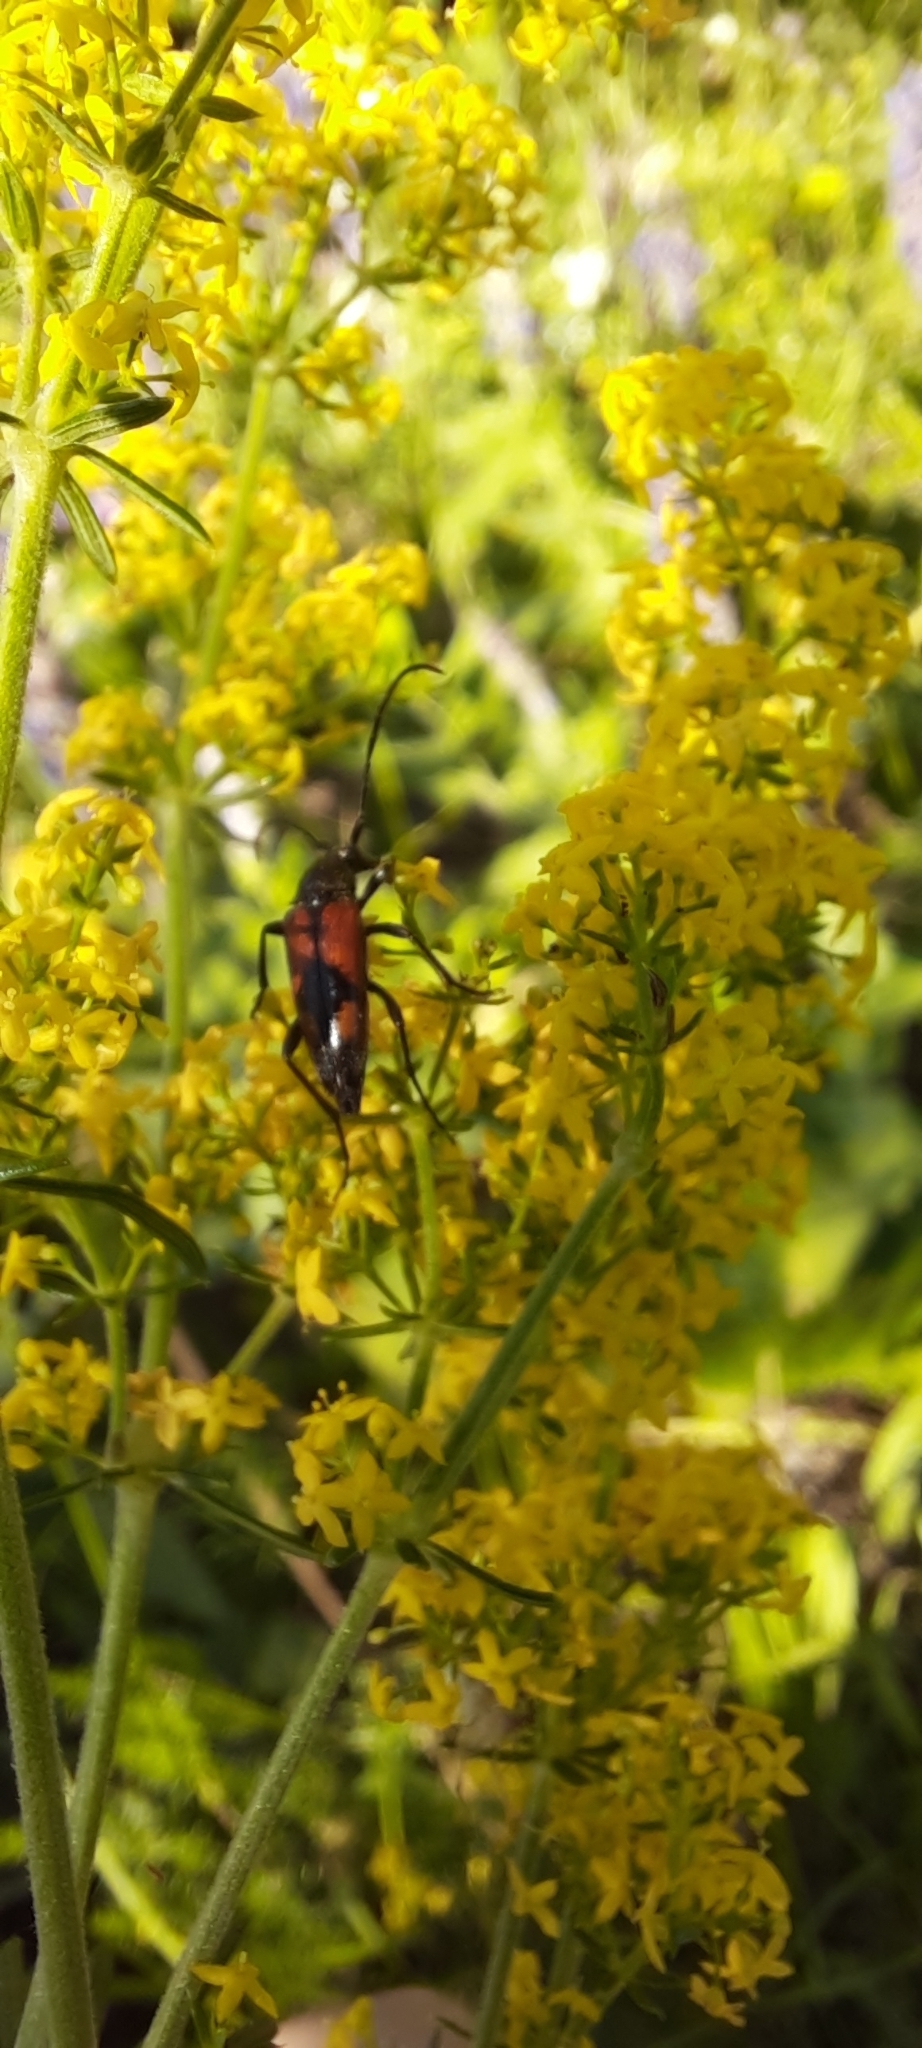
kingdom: Animalia
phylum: Arthropoda
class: Insecta
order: Coleoptera
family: Cerambycidae
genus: Stenurella
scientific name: Stenurella bifasciata
